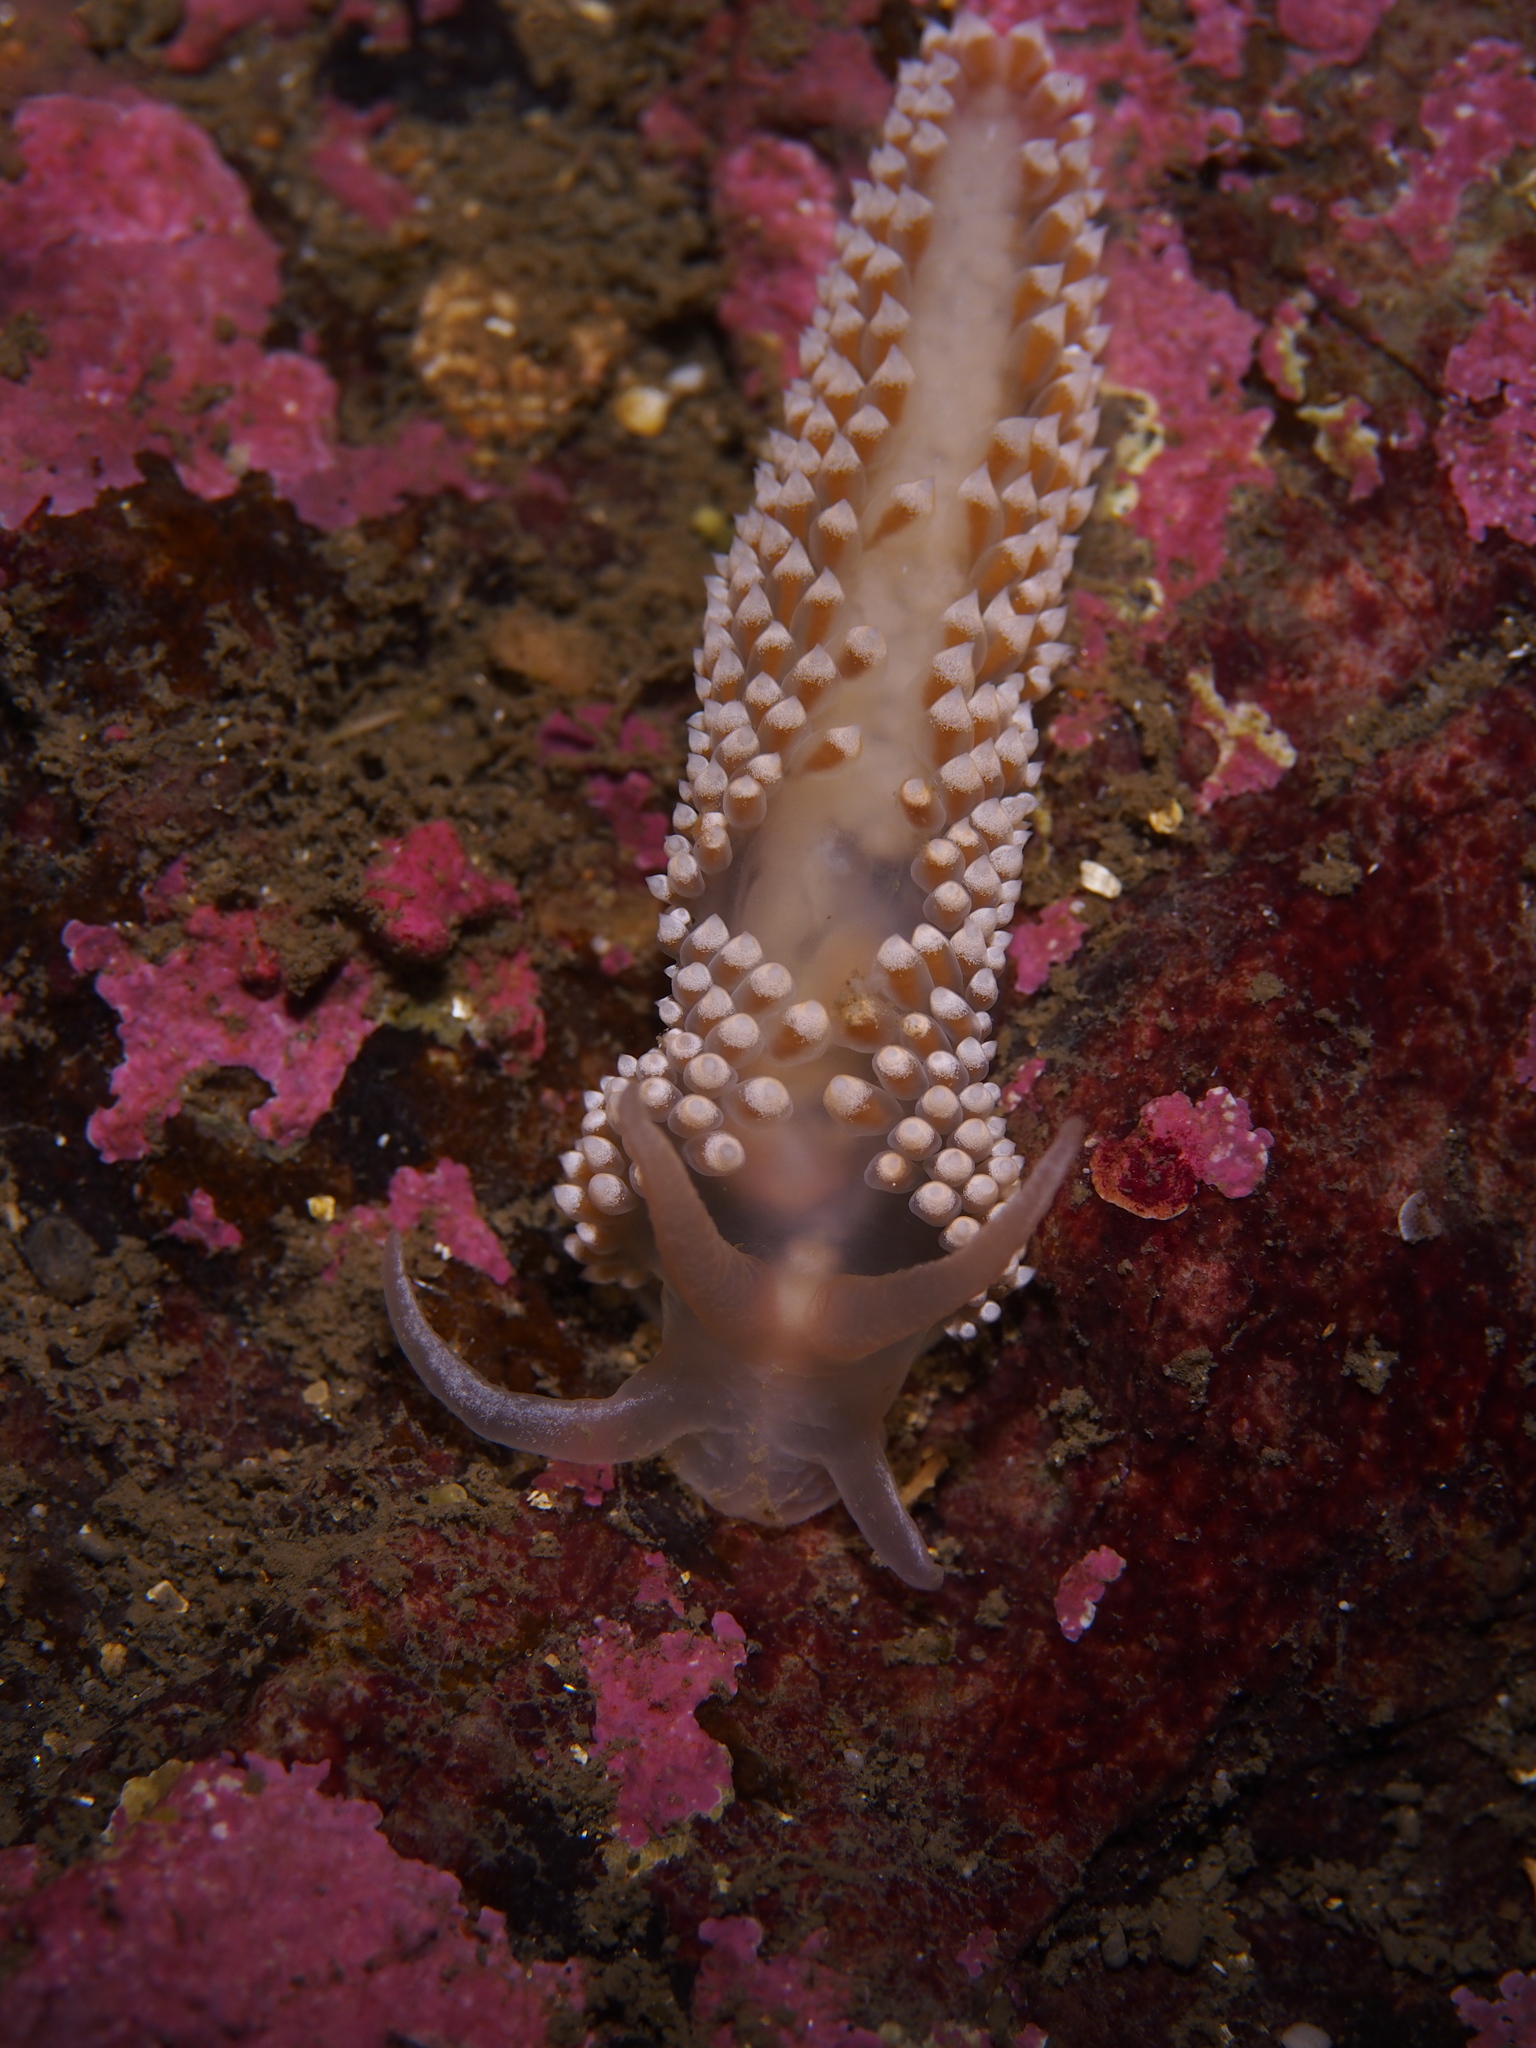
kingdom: Animalia
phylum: Mollusca
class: Gastropoda
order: Nudibranchia
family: Coryphellidae
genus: Coryphella
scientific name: Coryphella verrucosa
